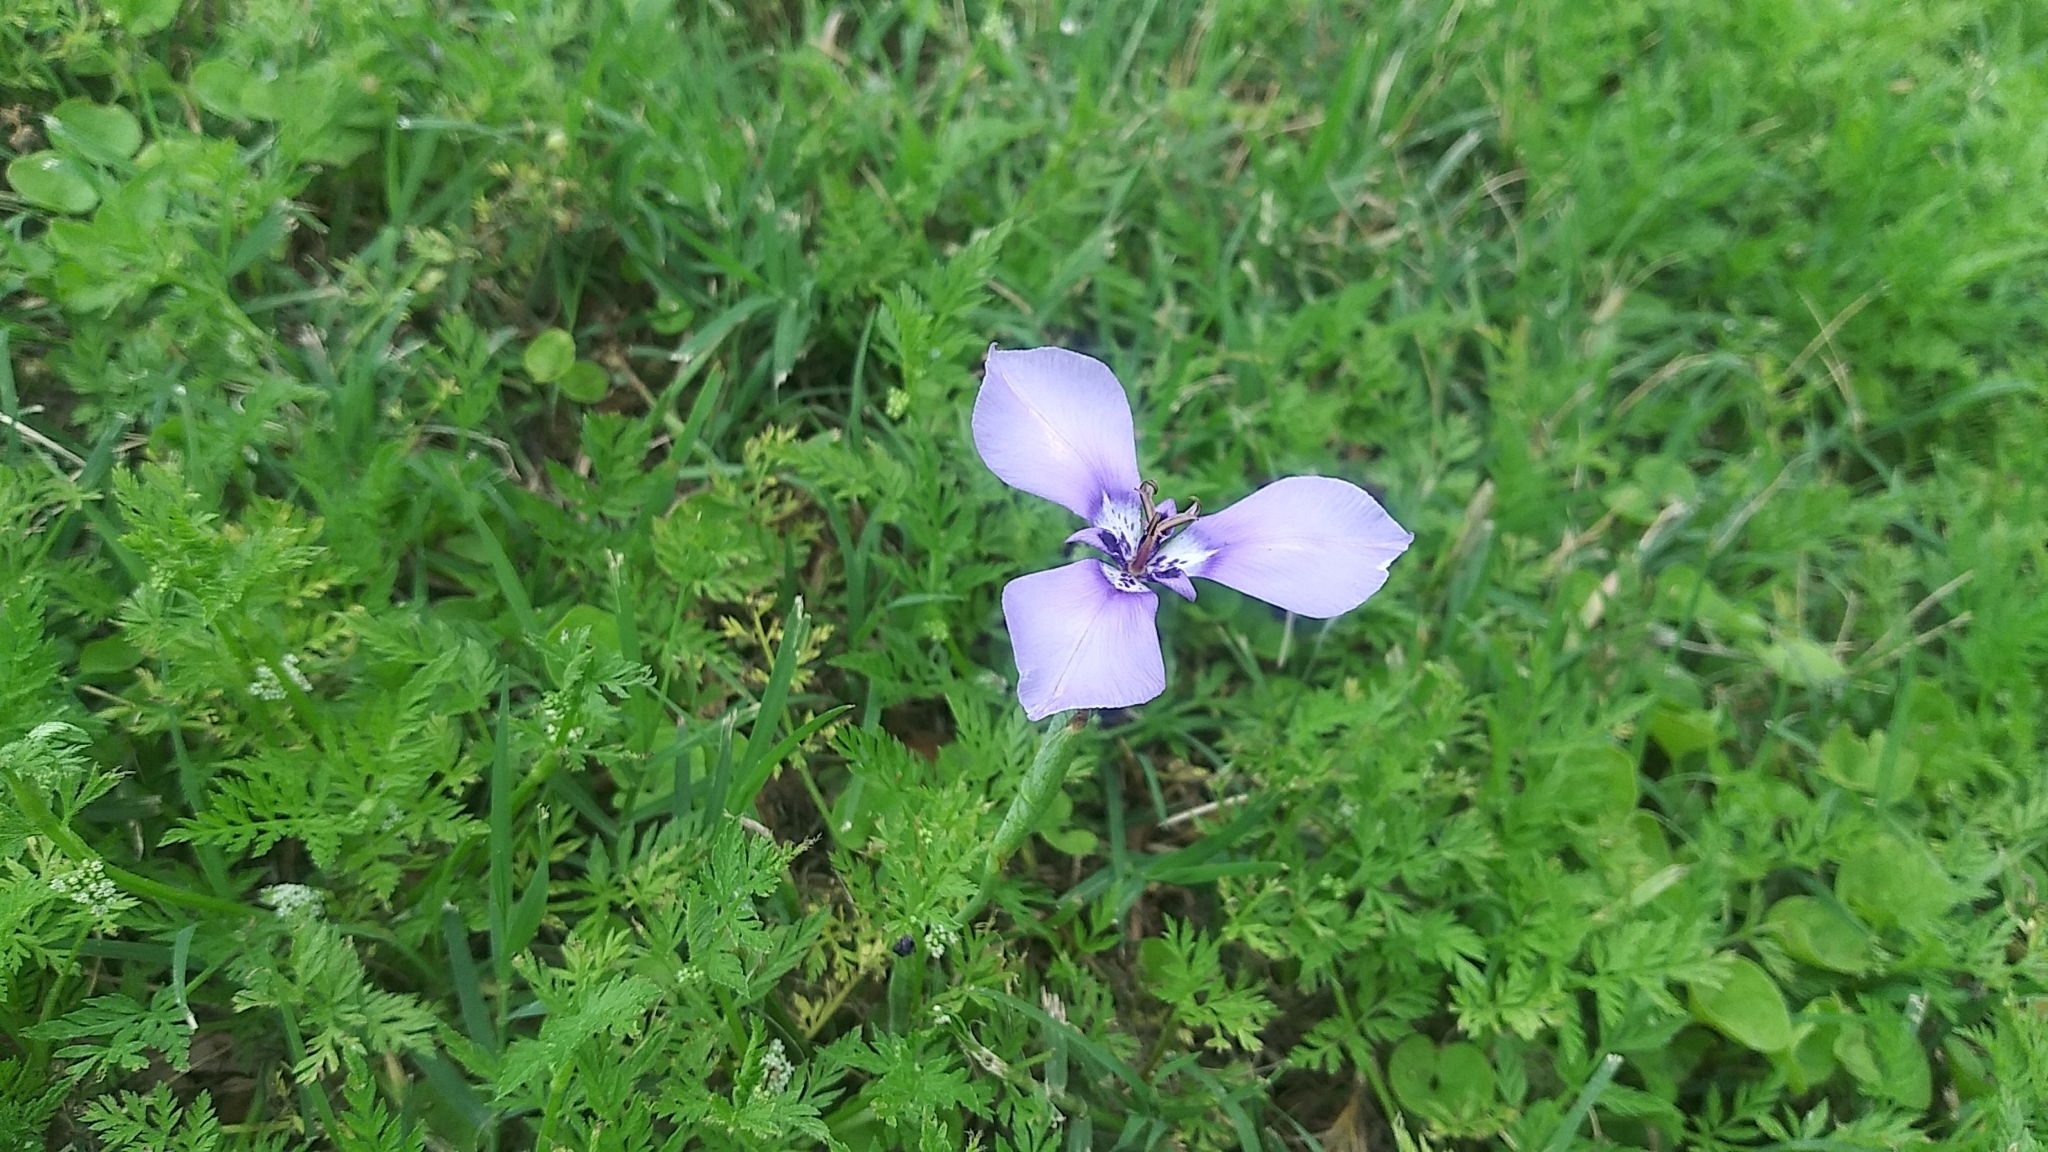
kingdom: Plantae
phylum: Tracheophyta
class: Liliopsida
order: Asparagales
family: Iridaceae
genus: Herbertia
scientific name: Herbertia lahue
